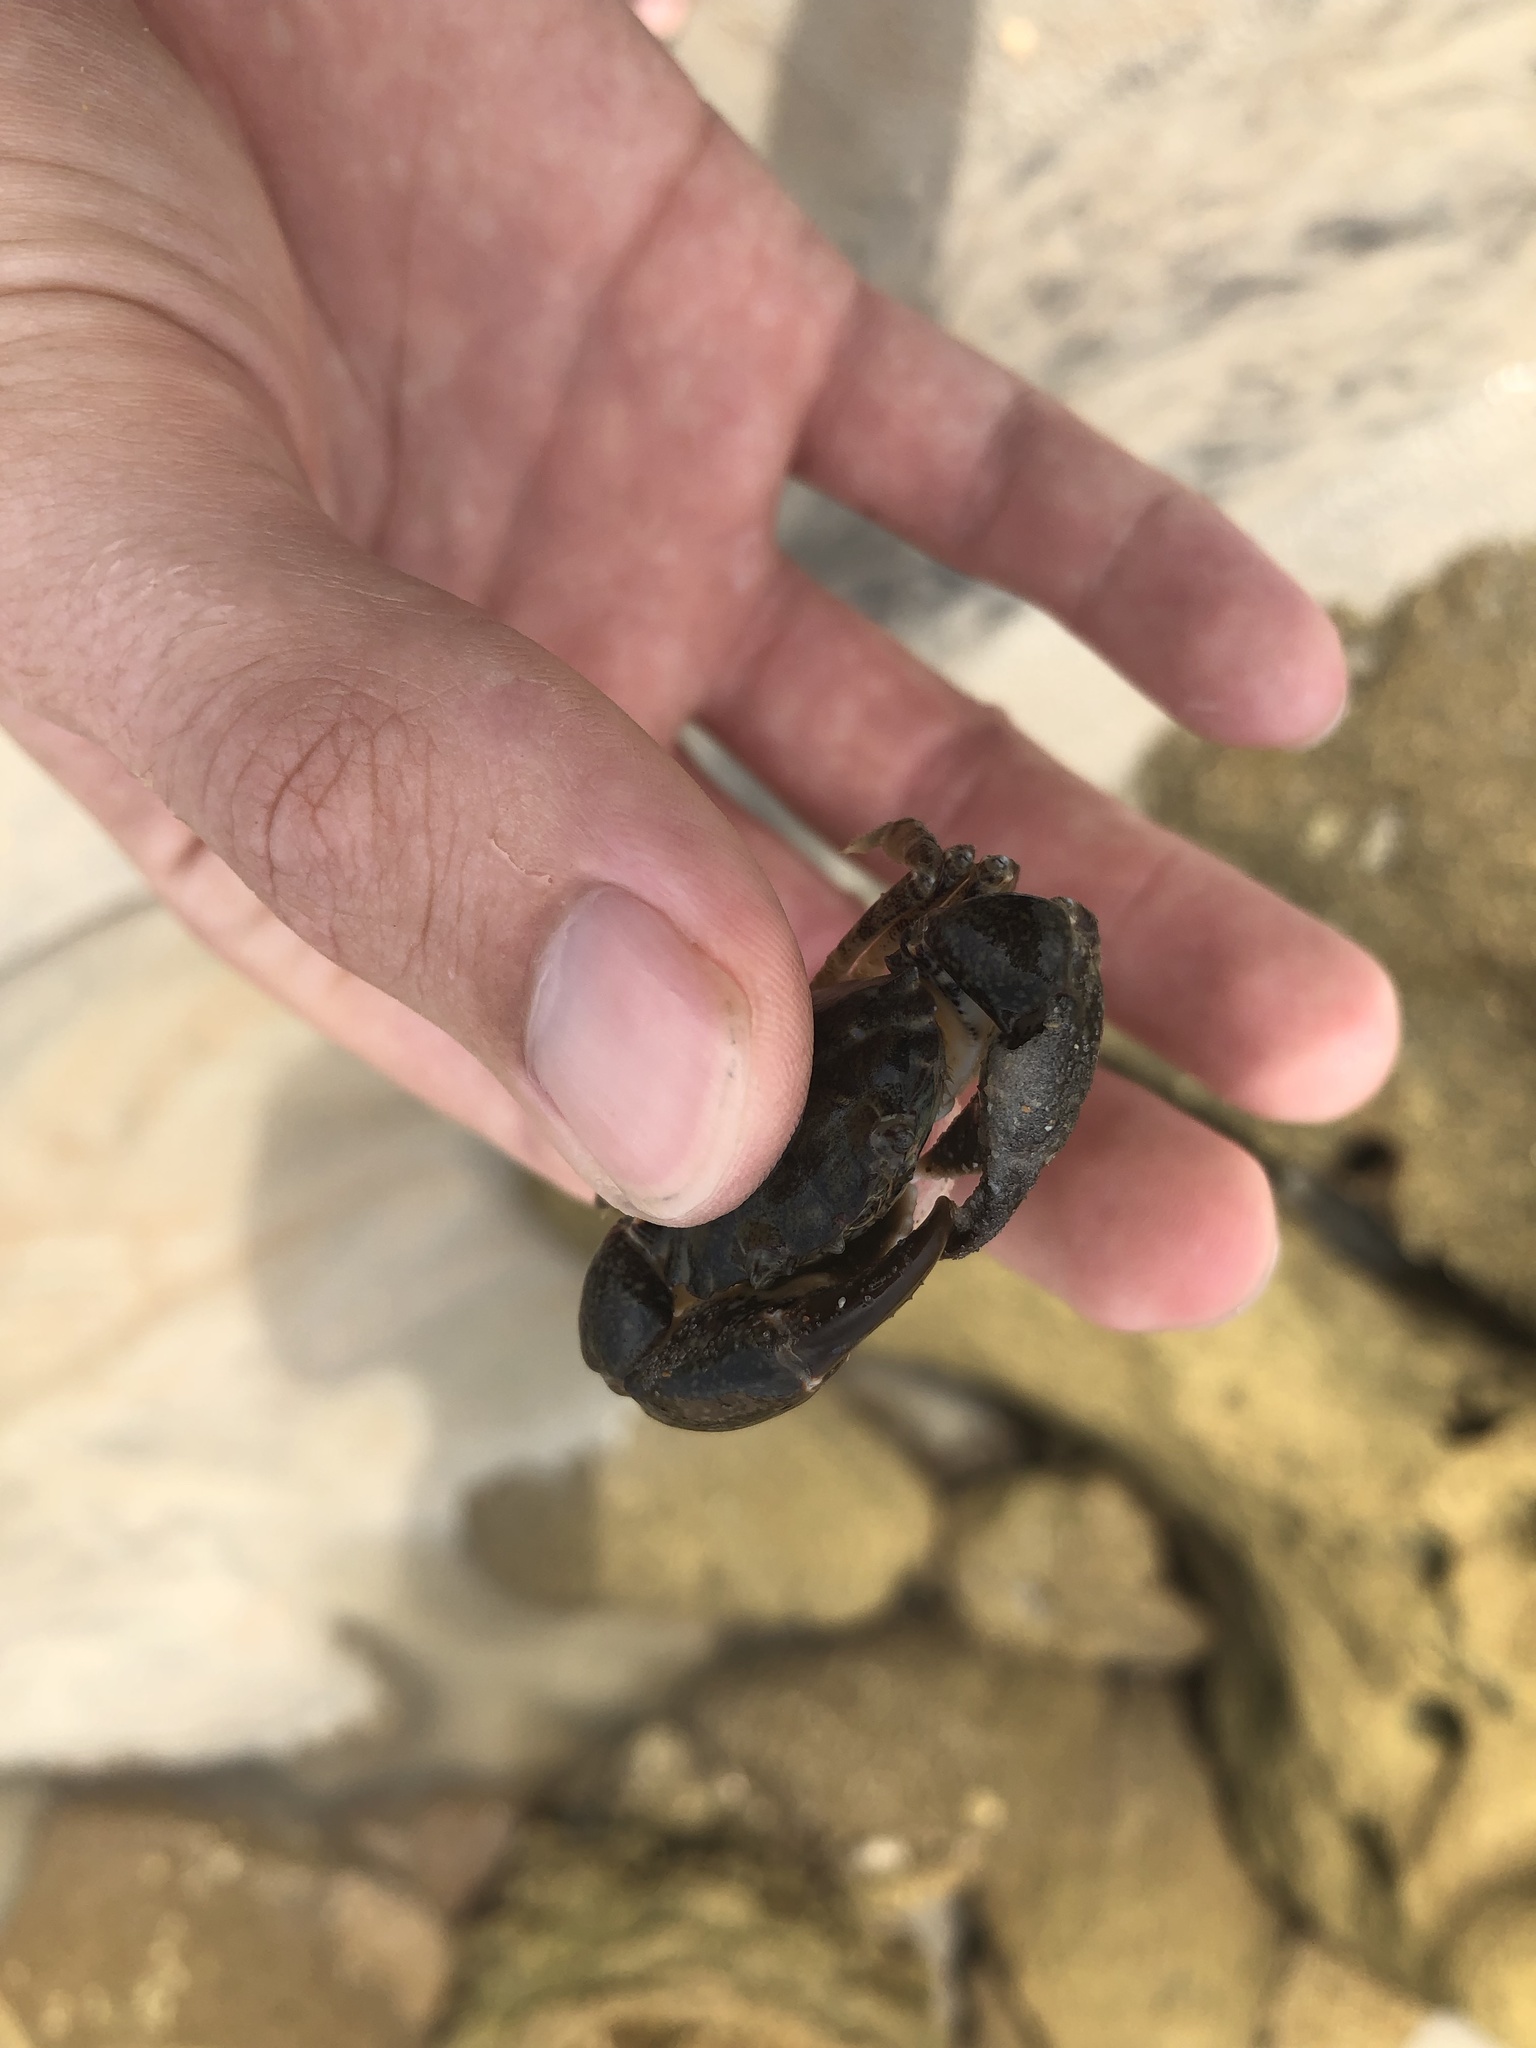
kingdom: Animalia
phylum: Arthropoda
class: Malacostraca
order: Decapoda
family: Panopeidae
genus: Panopeus
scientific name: Panopeus herbstii
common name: Atlantic mud crab
